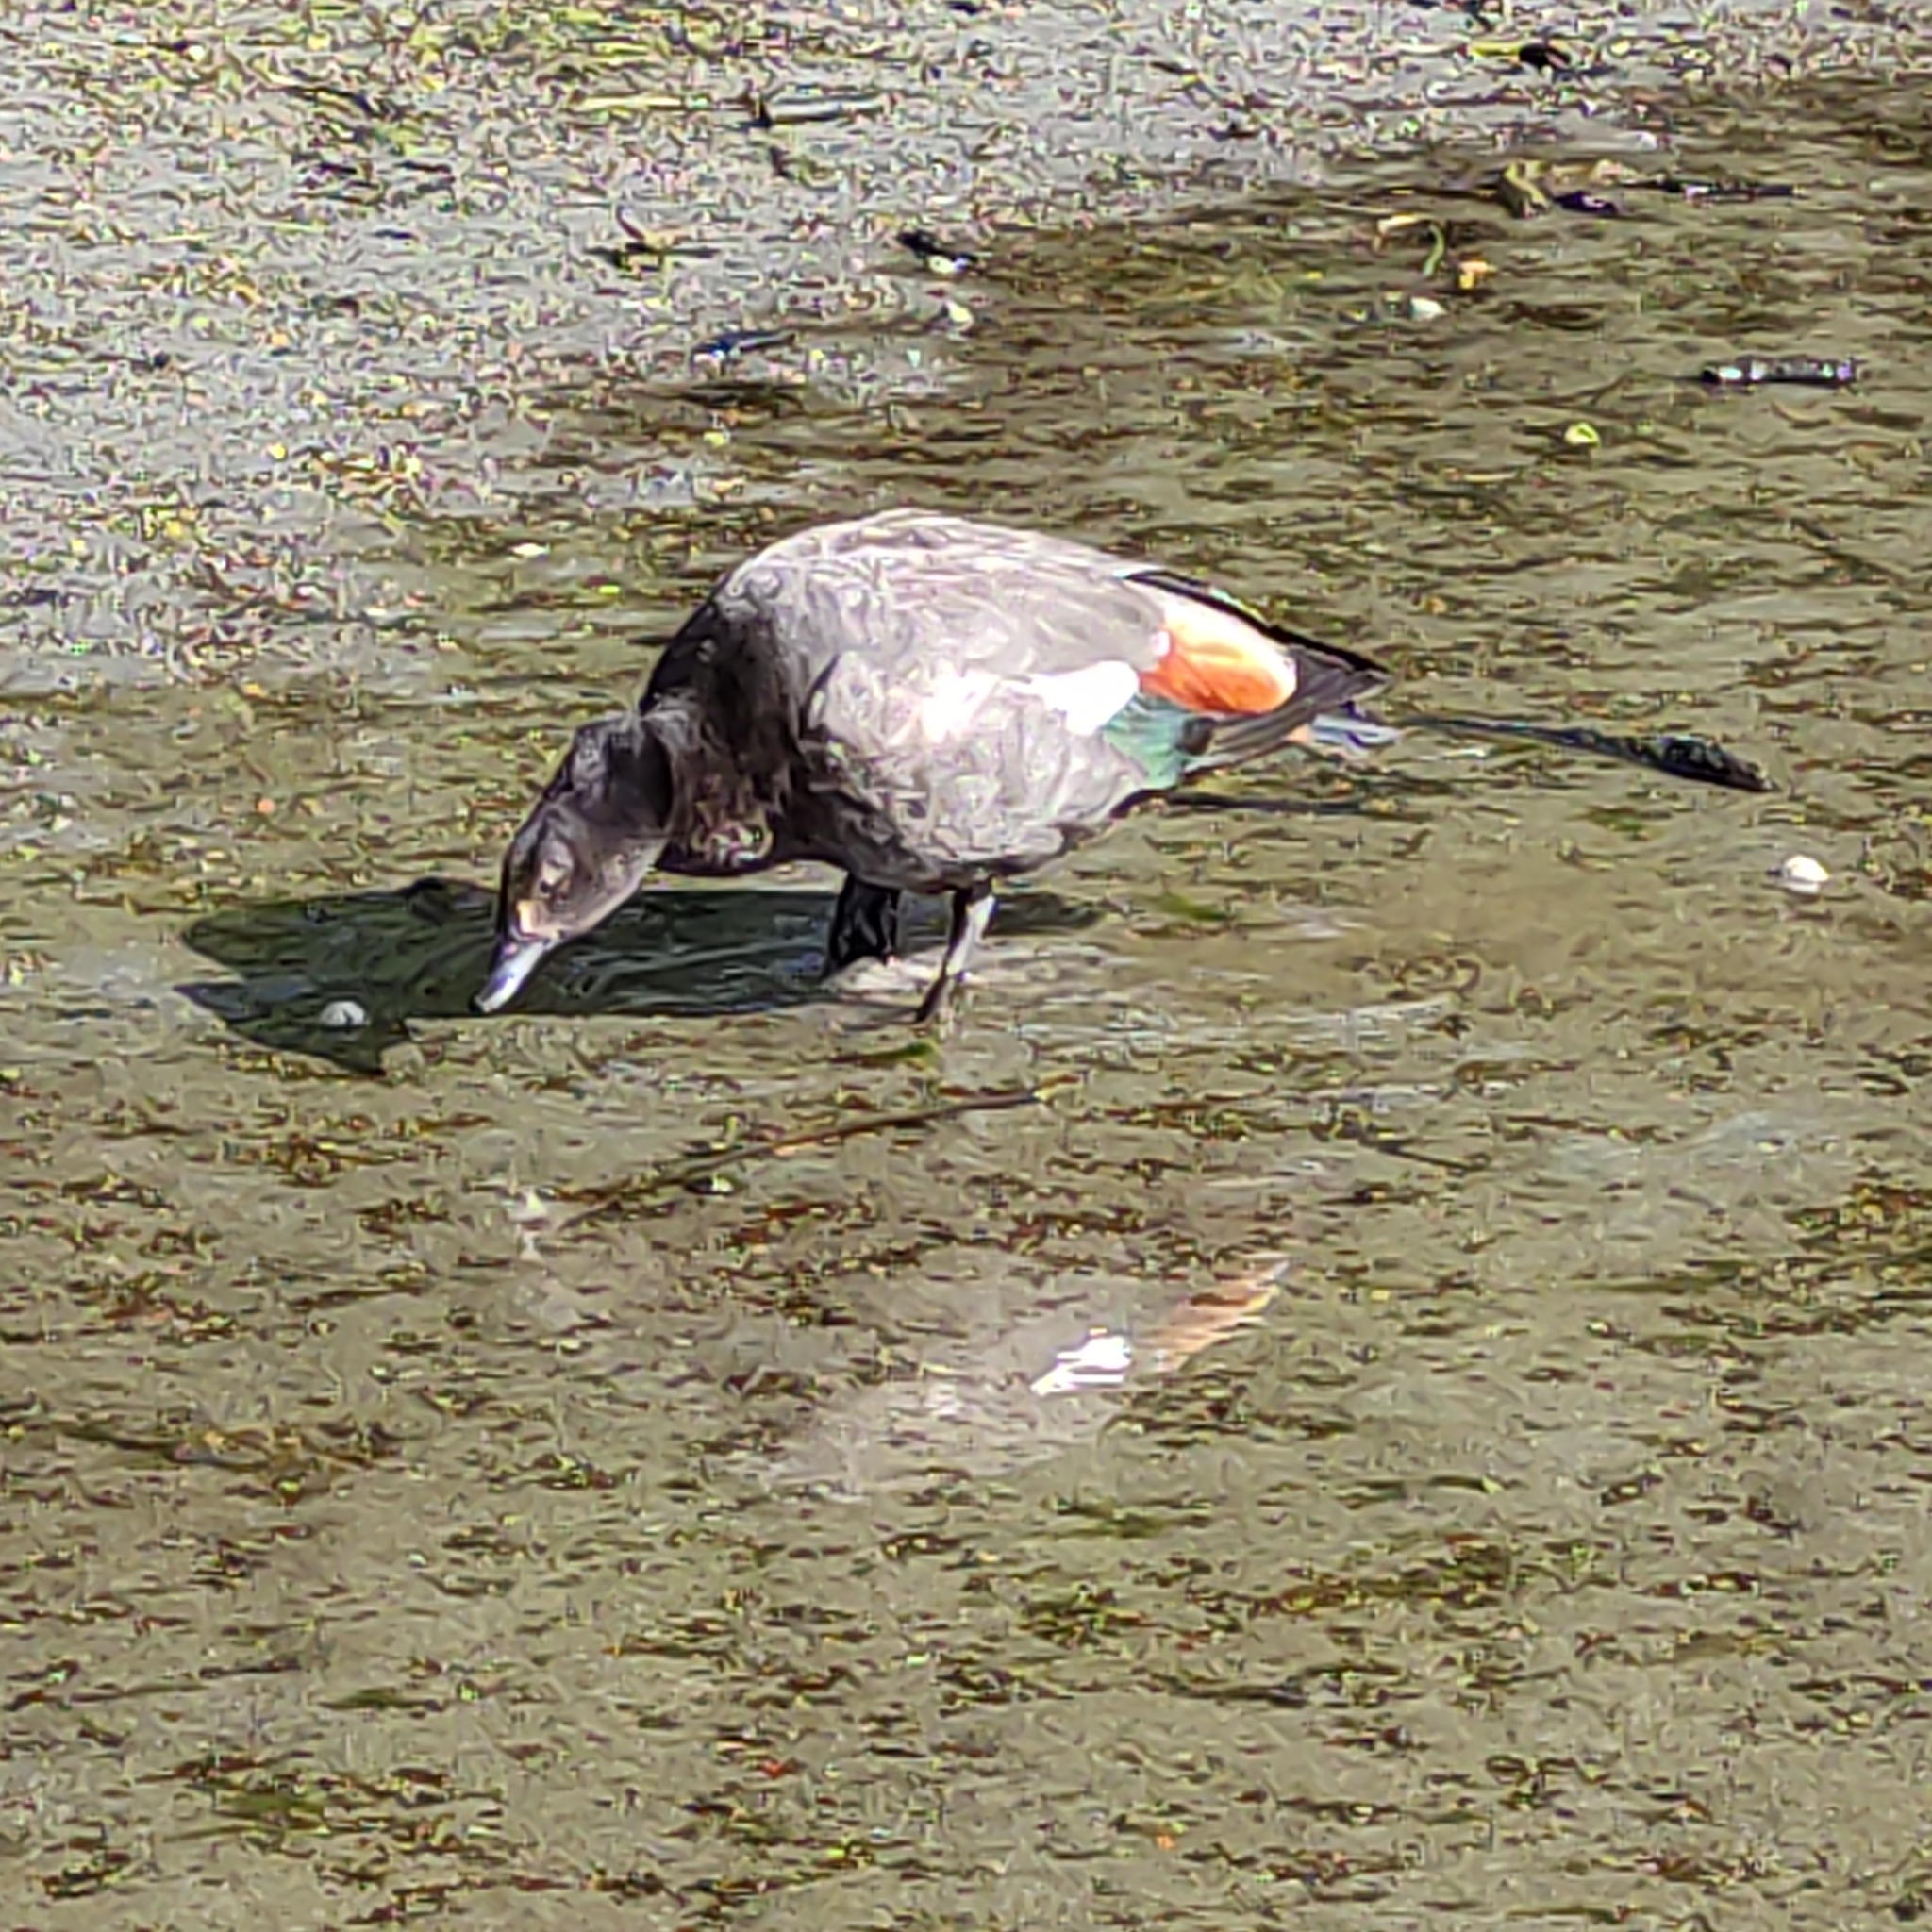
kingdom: Animalia
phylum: Chordata
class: Aves
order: Anseriformes
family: Anatidae
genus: Tadorna
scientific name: Tadorna variegata
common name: Paradise shelduck
